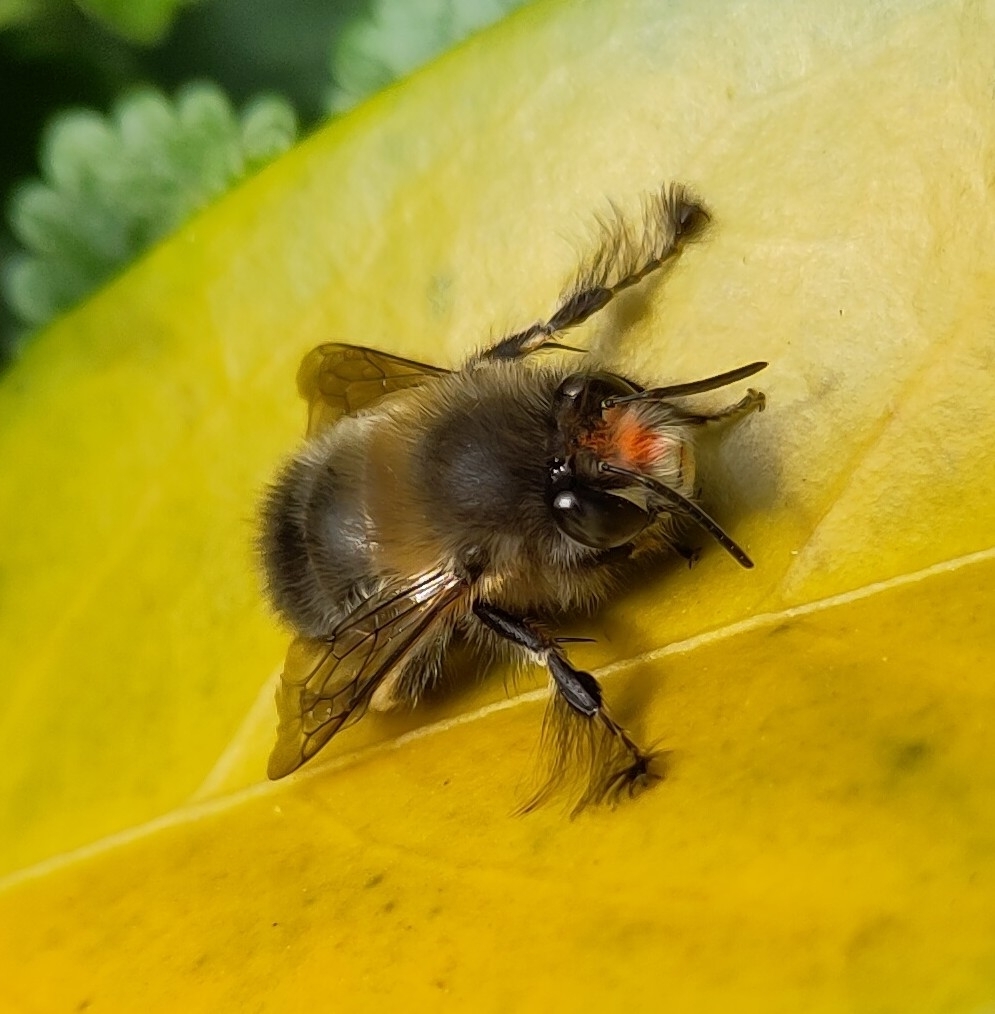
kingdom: Animalia
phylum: Arthropoda
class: Insecta
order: Hymenoptera
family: Apidae
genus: Anthophora
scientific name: Anthophora plumipes
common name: Hairy-footed flower bee
